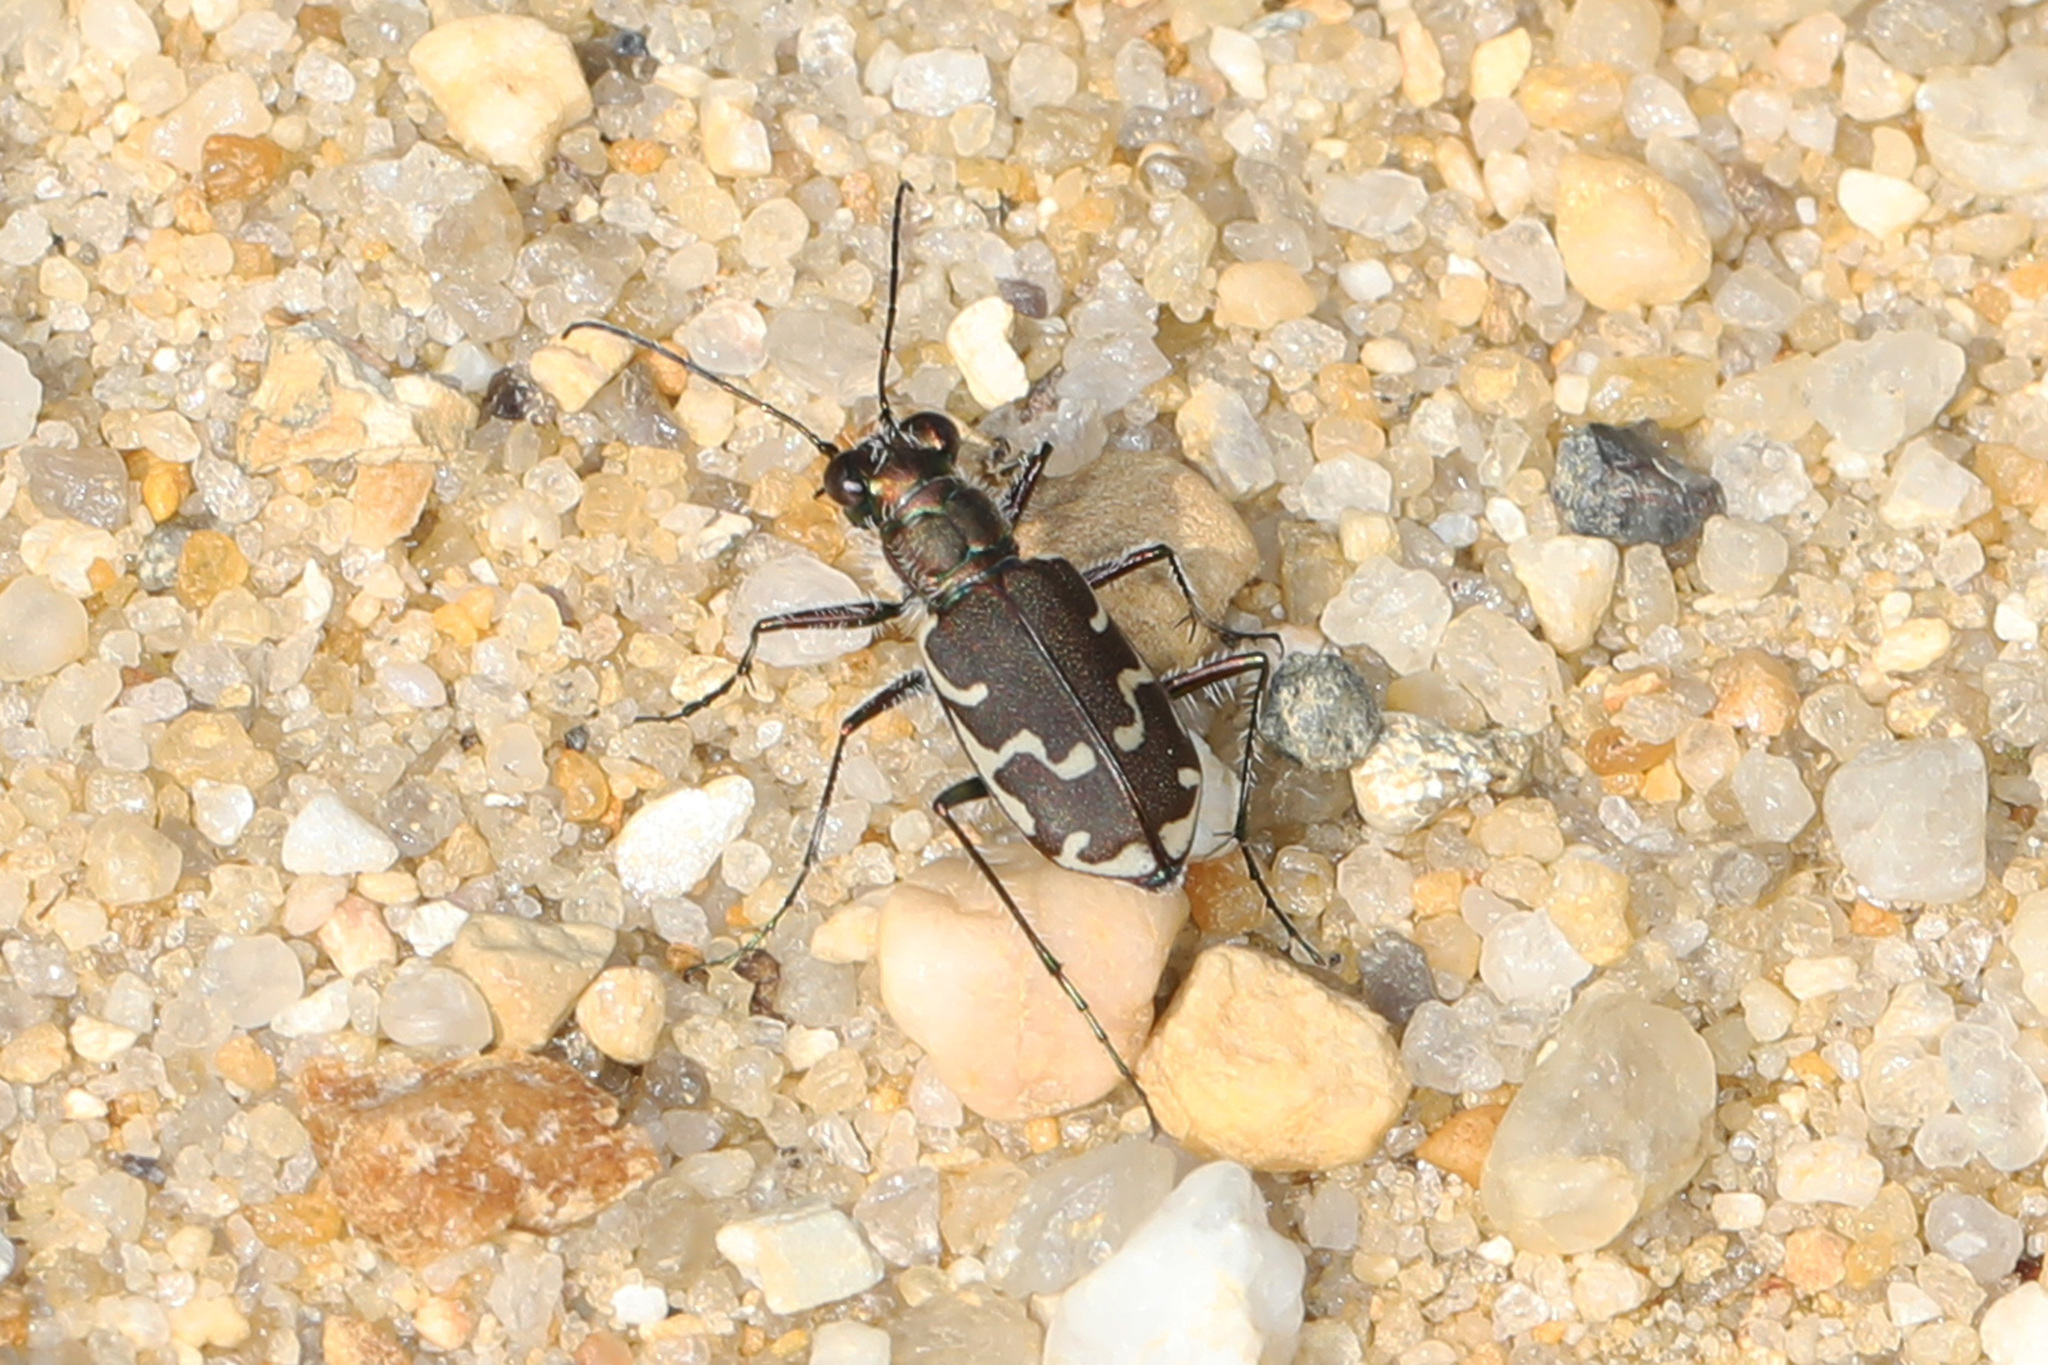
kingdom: Animalia
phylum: Arthropoda
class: Insecta
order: Coleoptera
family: Carabidae
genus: Cicindela
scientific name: Cicindela repanda
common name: Bronzed tiger beetle
